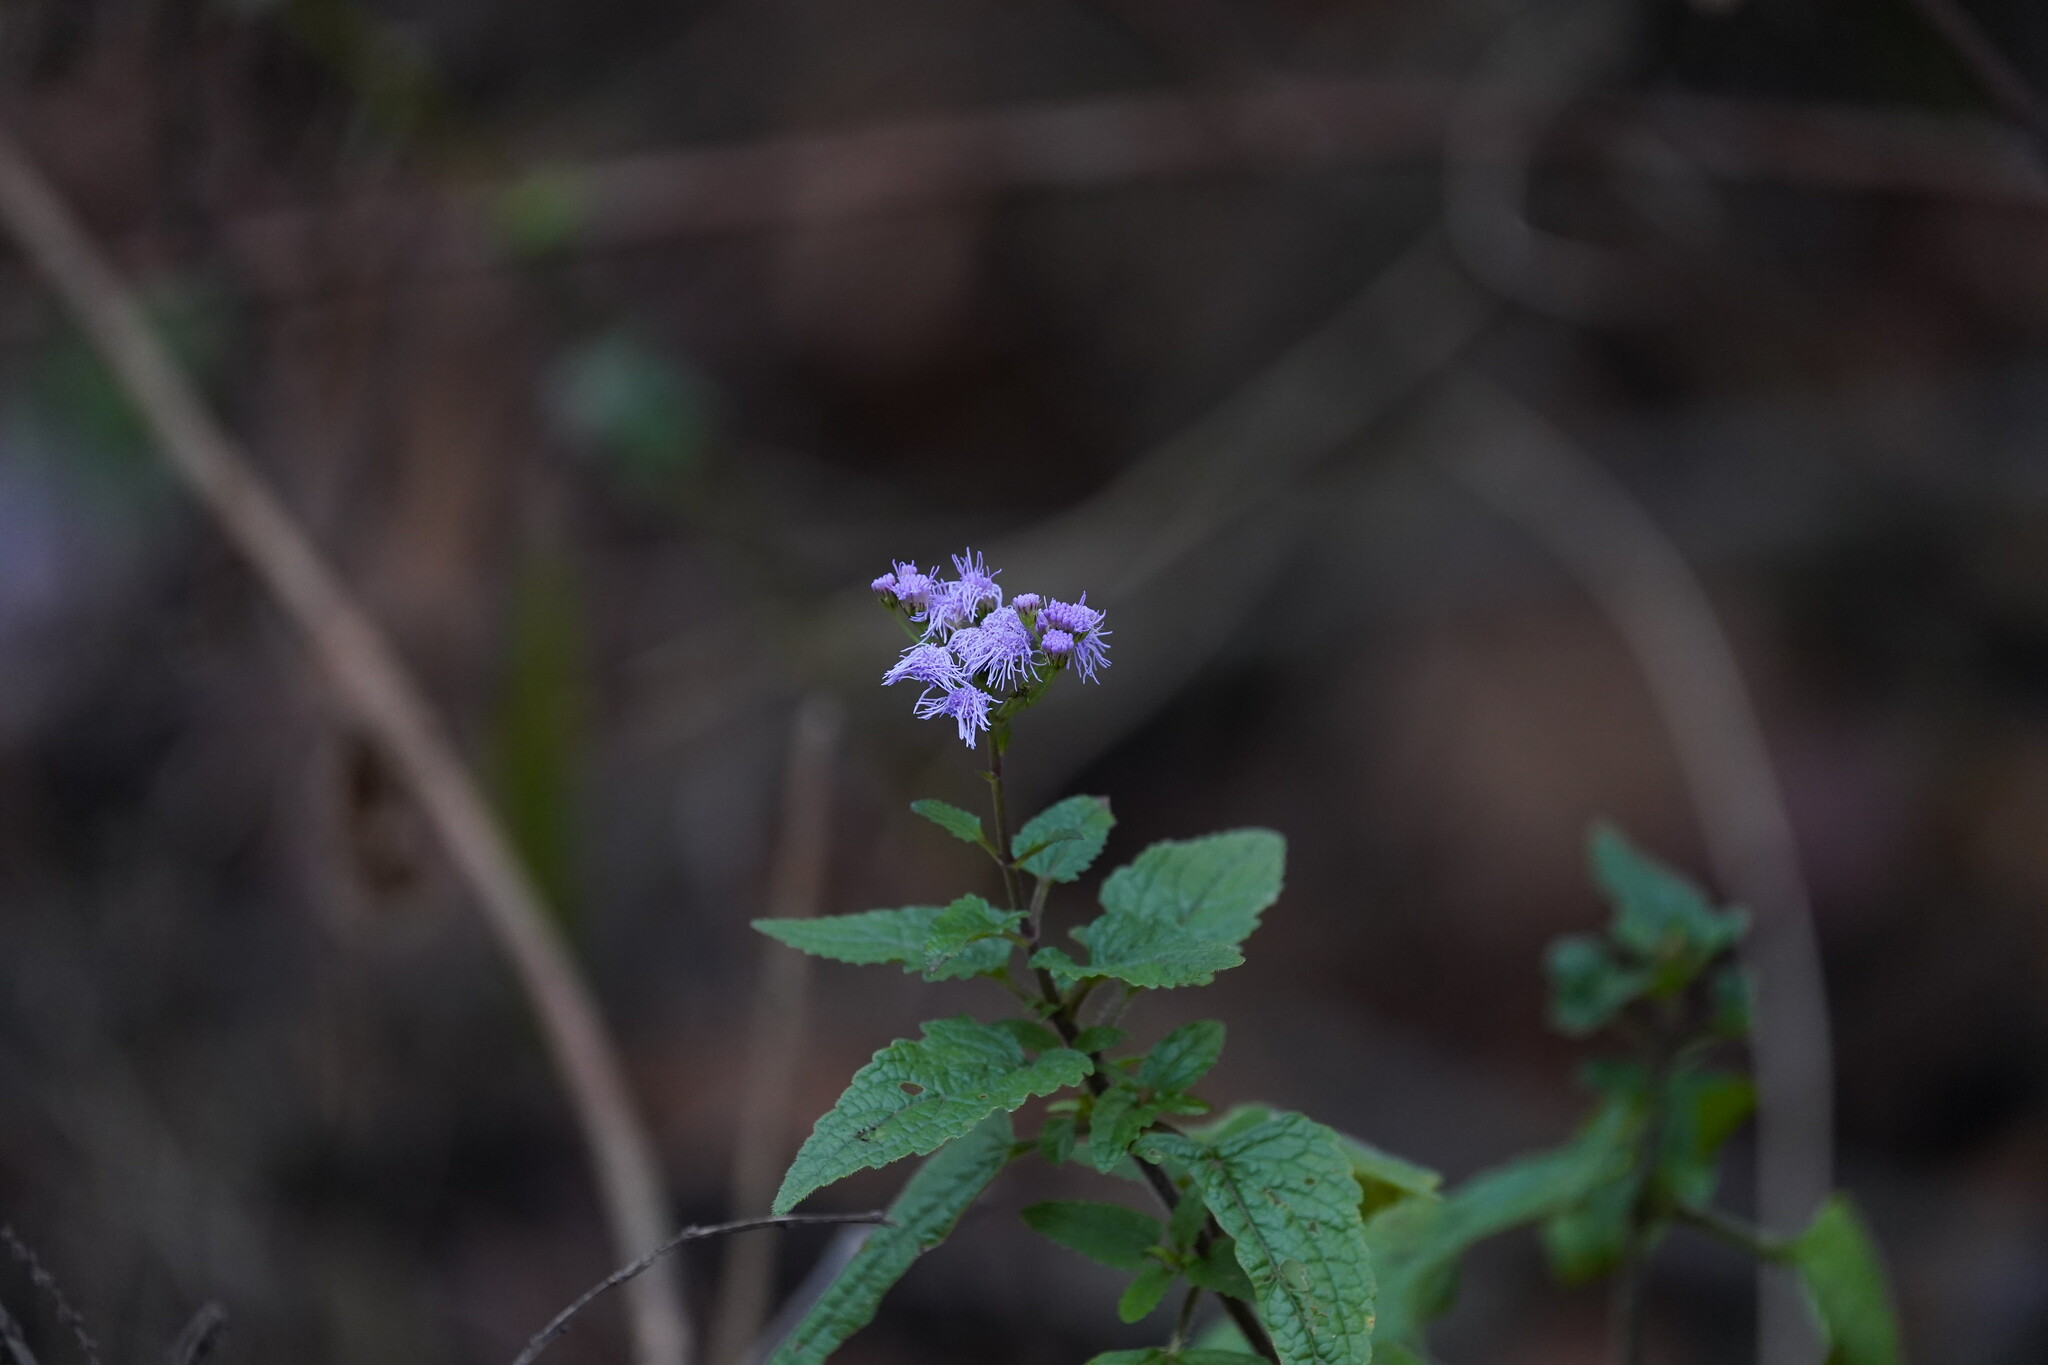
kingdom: Plantae
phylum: Tracheophyta
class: Magnoliopsida
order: Asterales
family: Asteraceae
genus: Conoclinium
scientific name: Conoclinium coelestinum
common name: Blue mistflower
